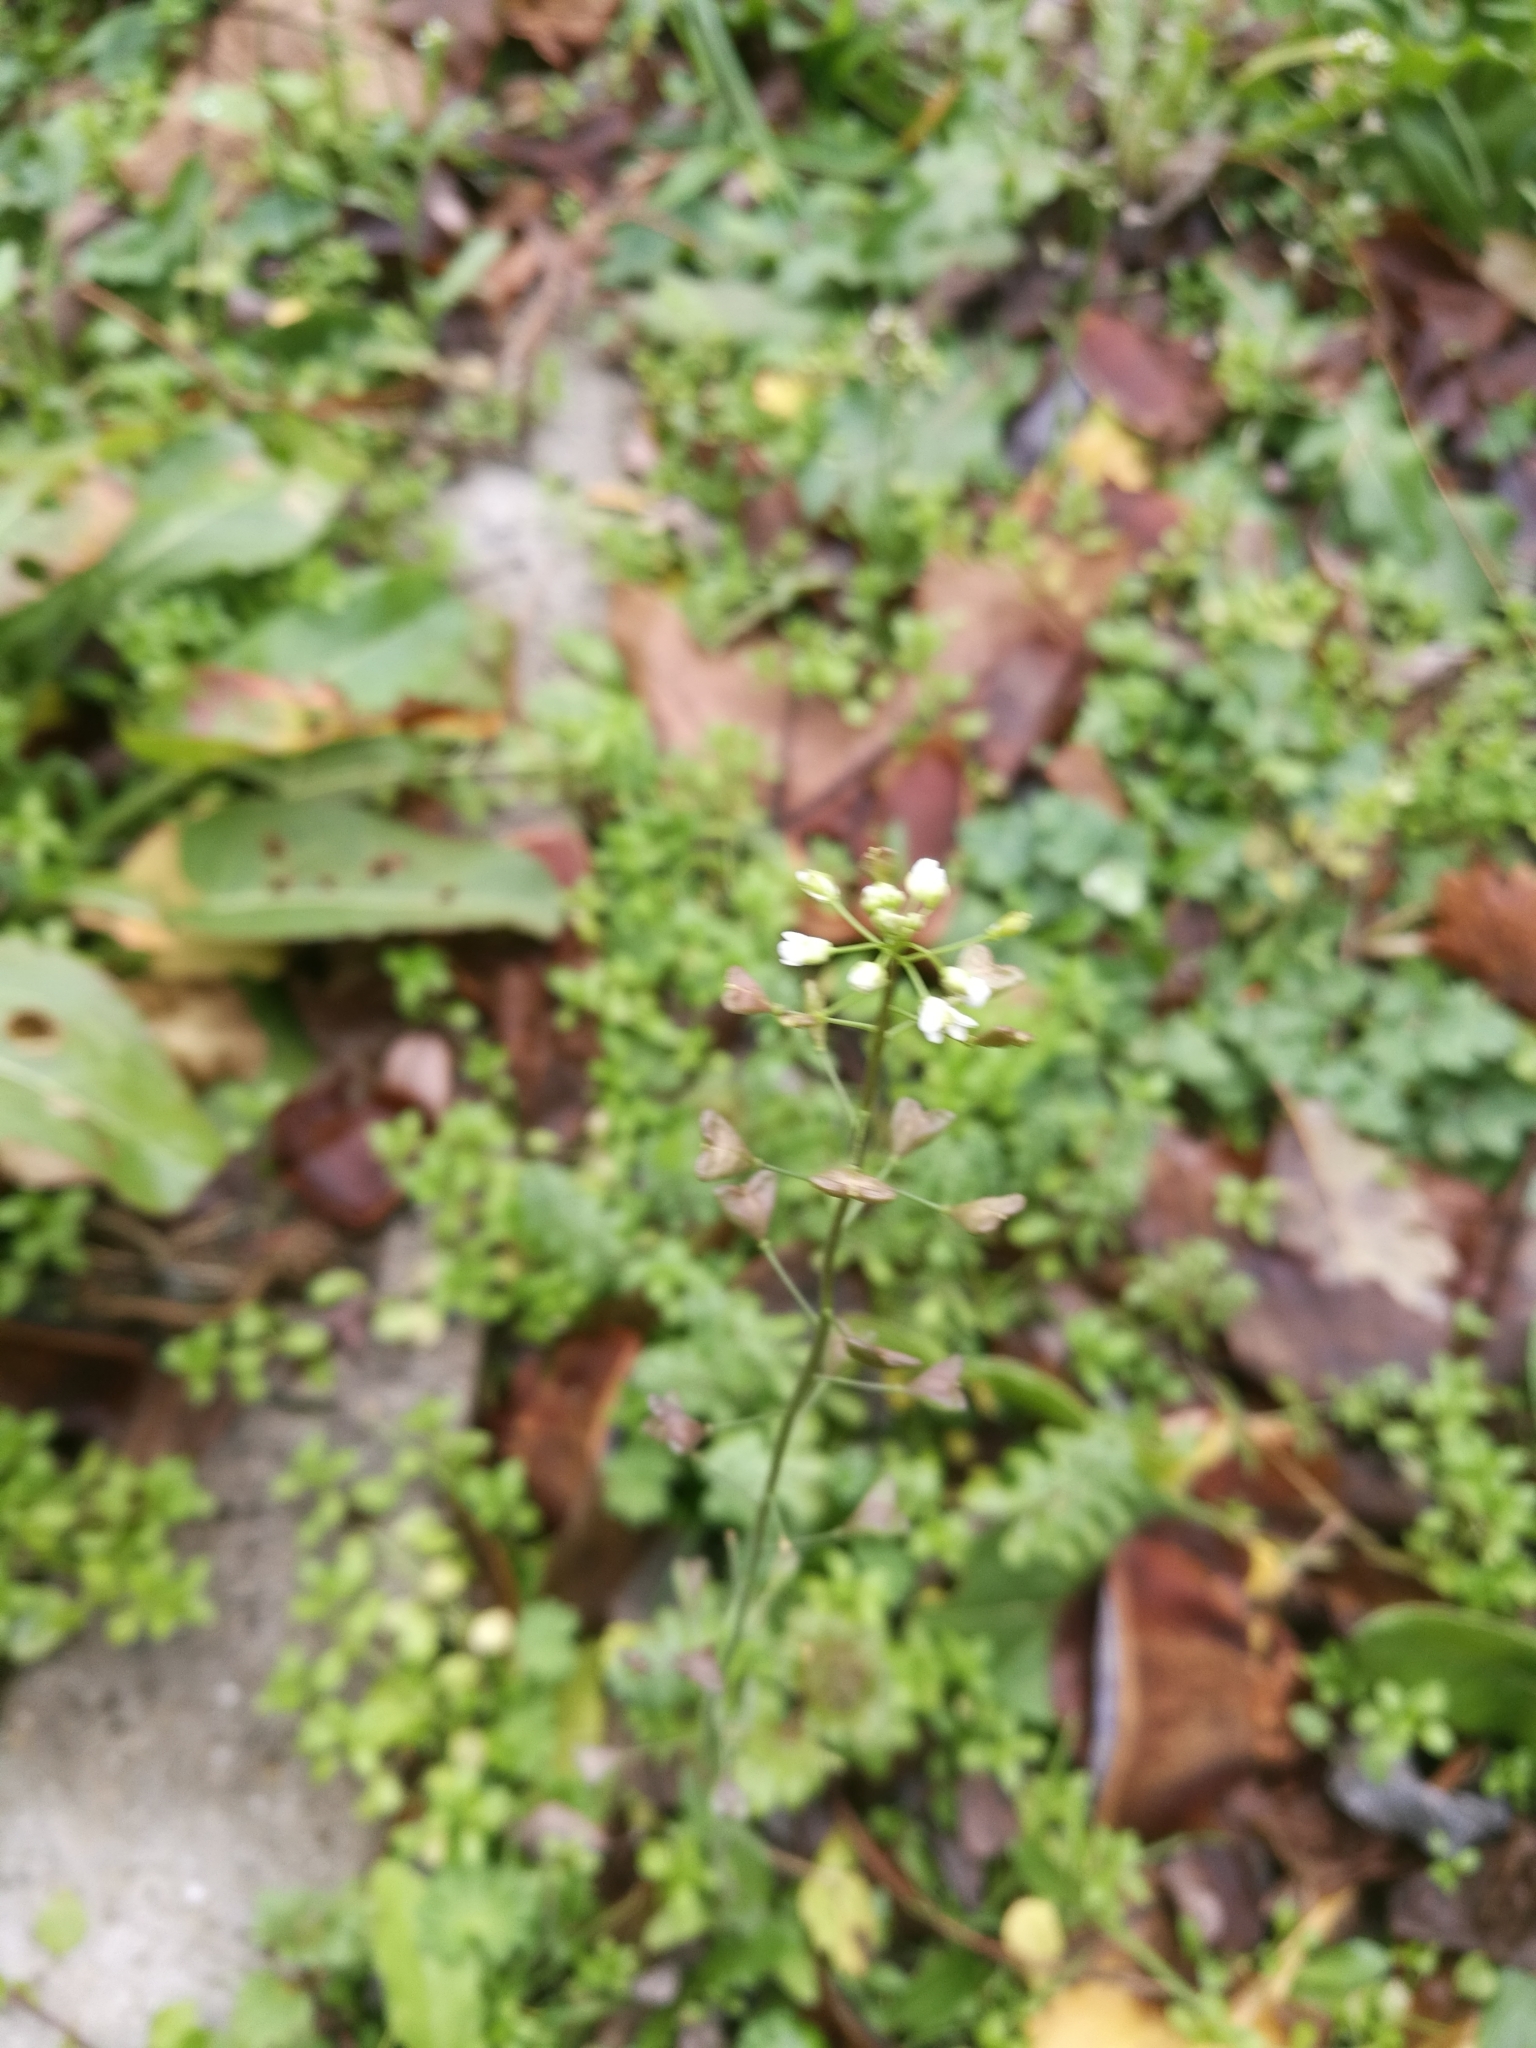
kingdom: Plantae
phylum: Tracheophyta
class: Magnoliopsida
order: Brassicales
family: Brassicaceae
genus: Capsella
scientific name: Capsella bursa-pastoris
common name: Shepherd's purse
